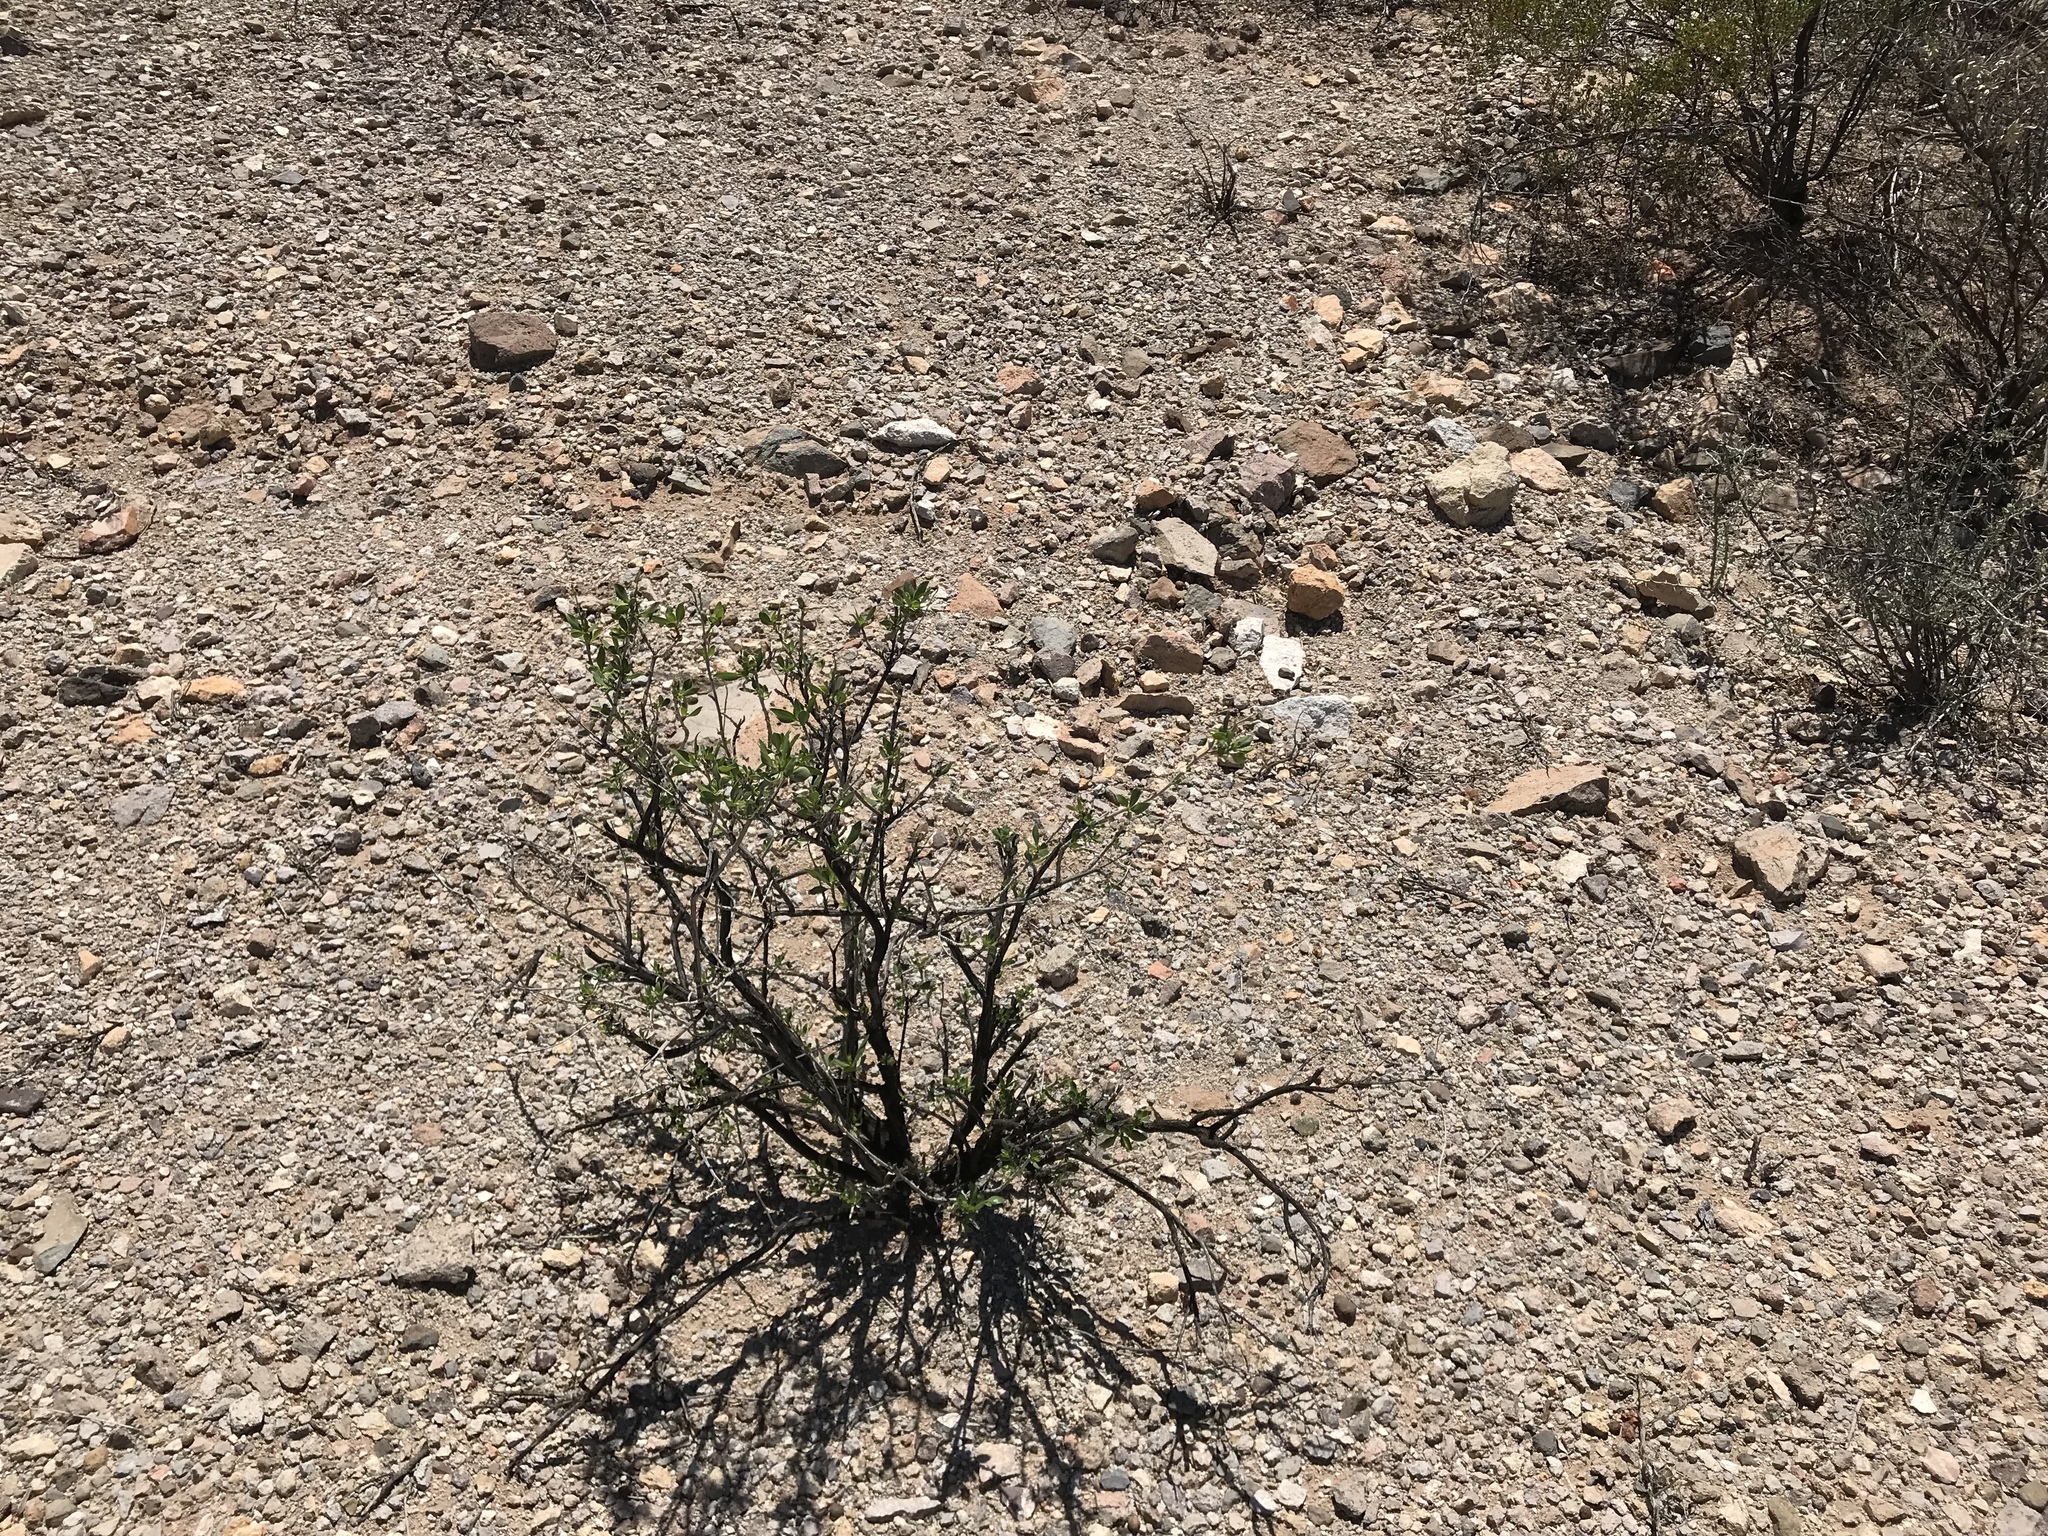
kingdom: Plantae
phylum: Tracheophyta
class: Magnoliopsida
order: Asterales
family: Asteraceae
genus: Flourensia
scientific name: Flourensia cernua
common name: Varnishbush
